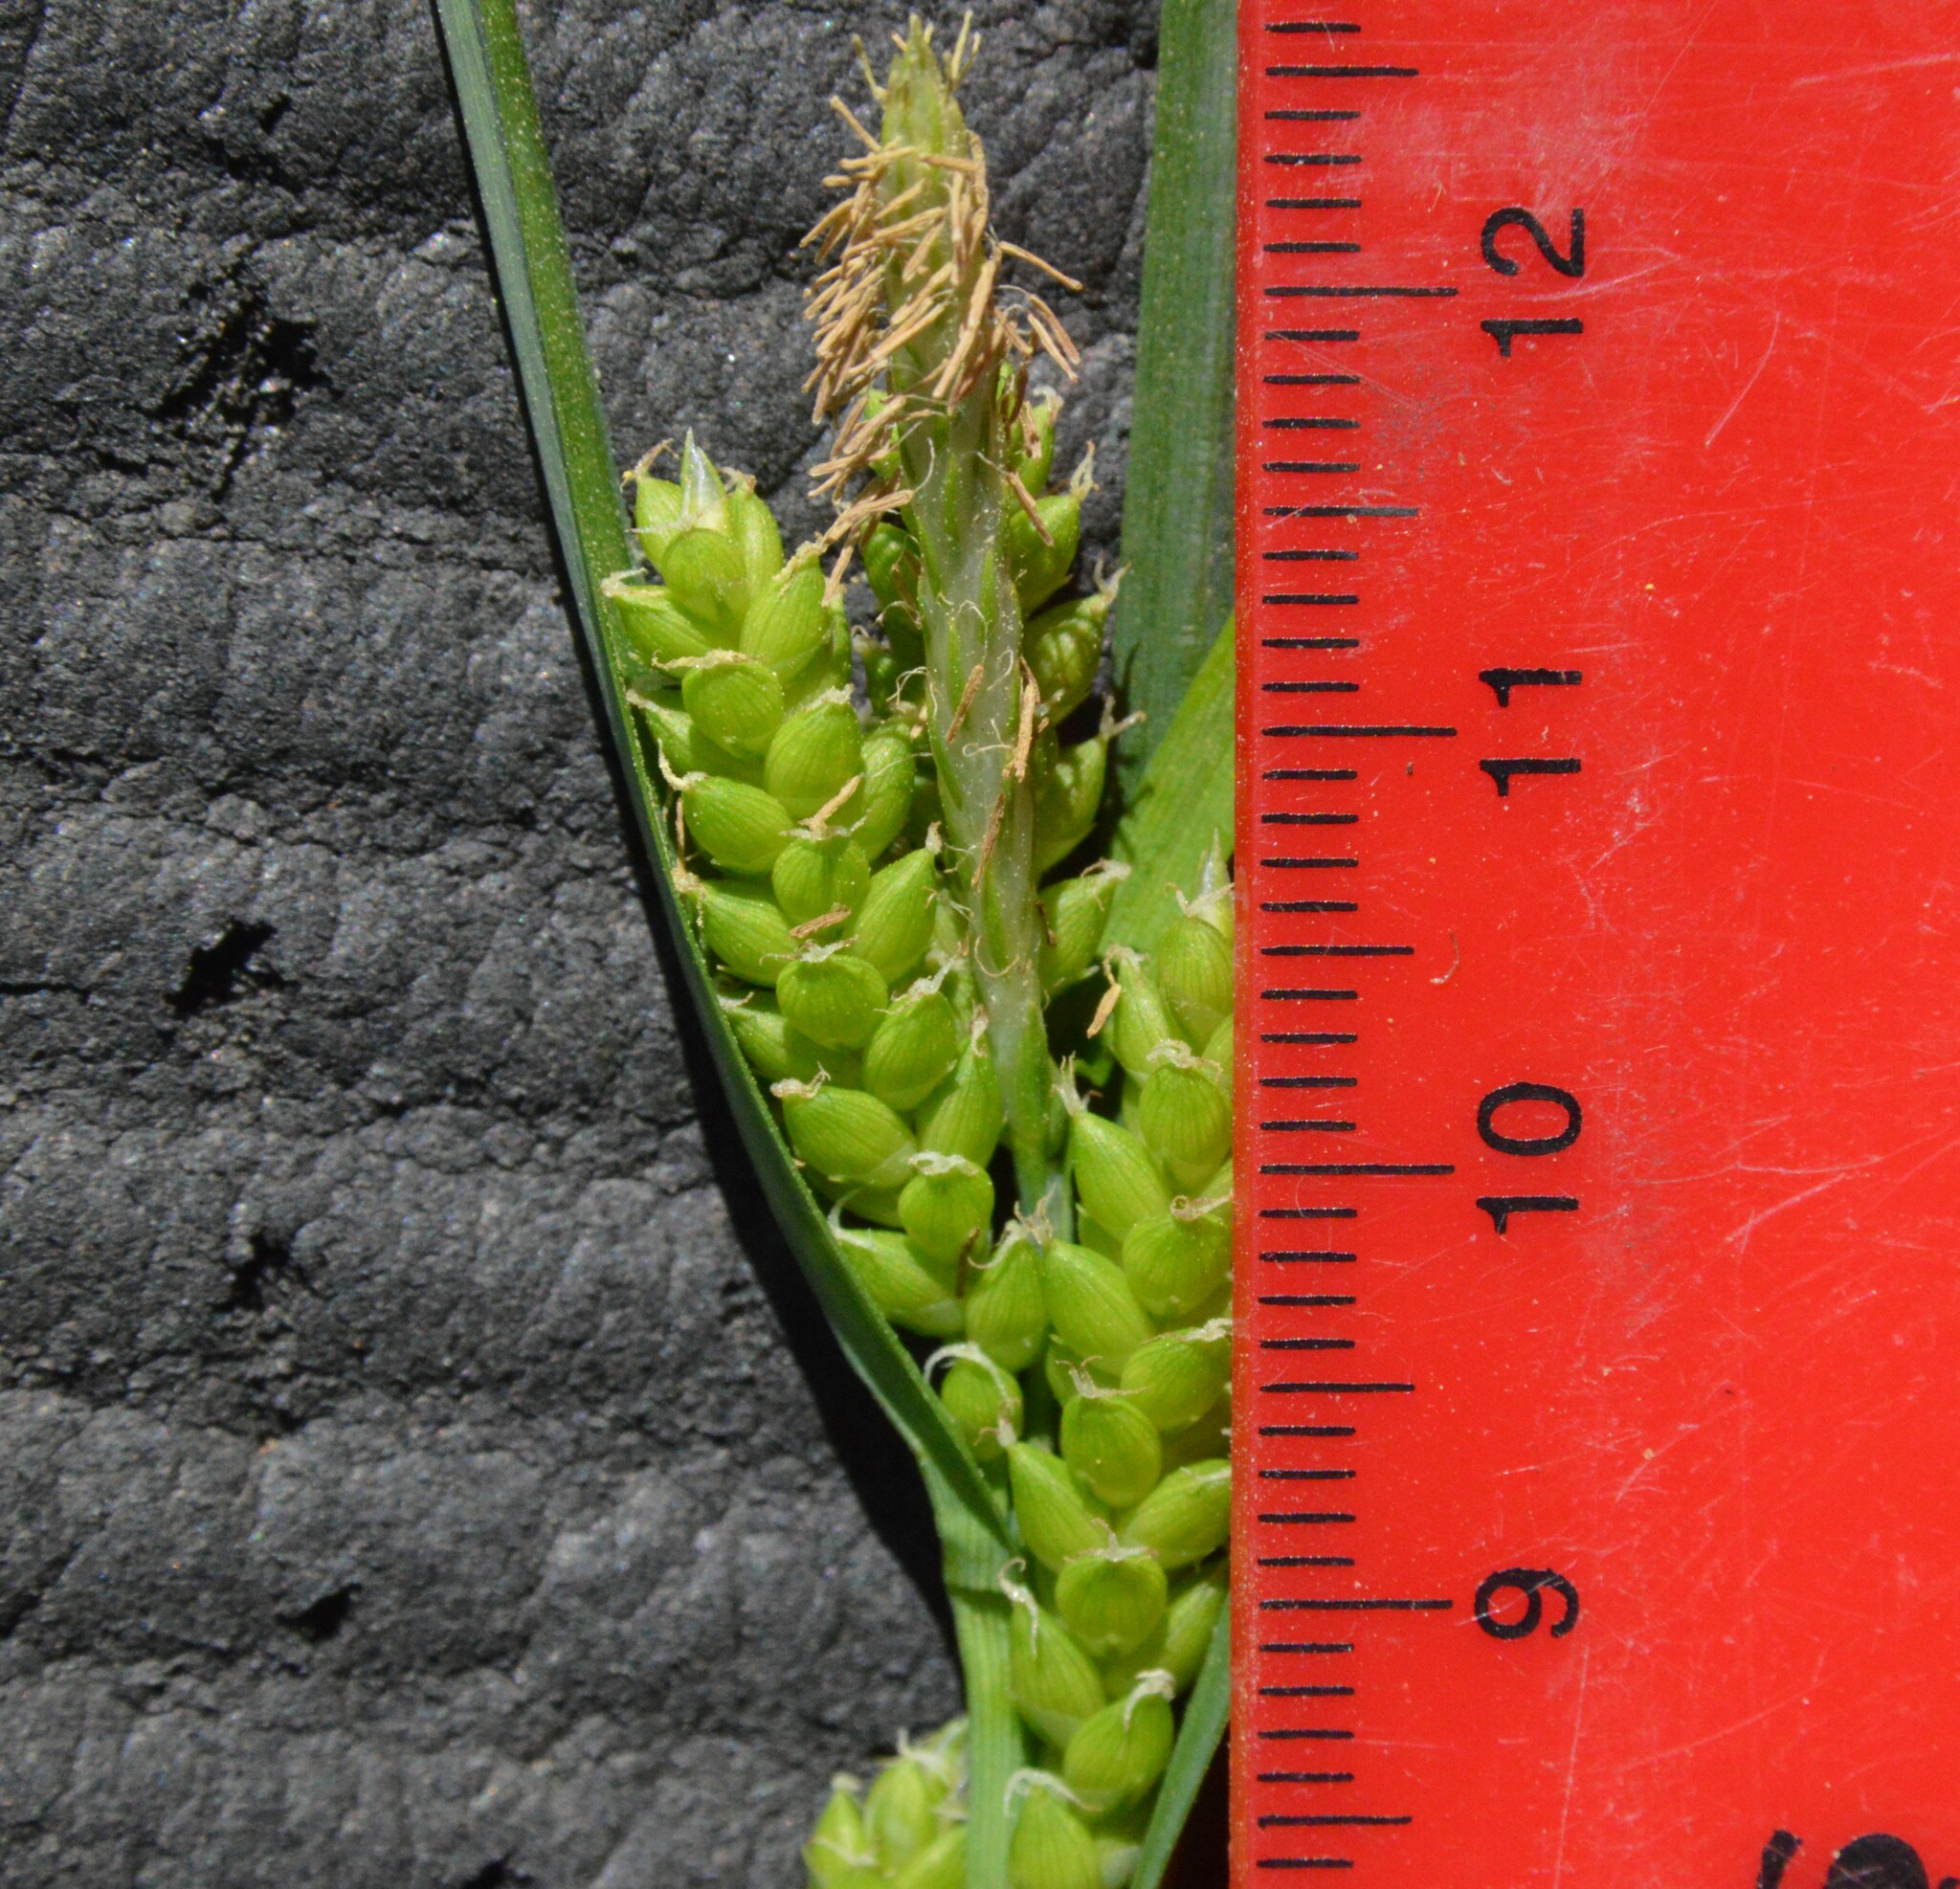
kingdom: Plantae
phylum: Tracheophyta
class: Liliopsida
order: Poales
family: Cyperaceae
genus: Carex
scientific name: Carex flaccosperma
